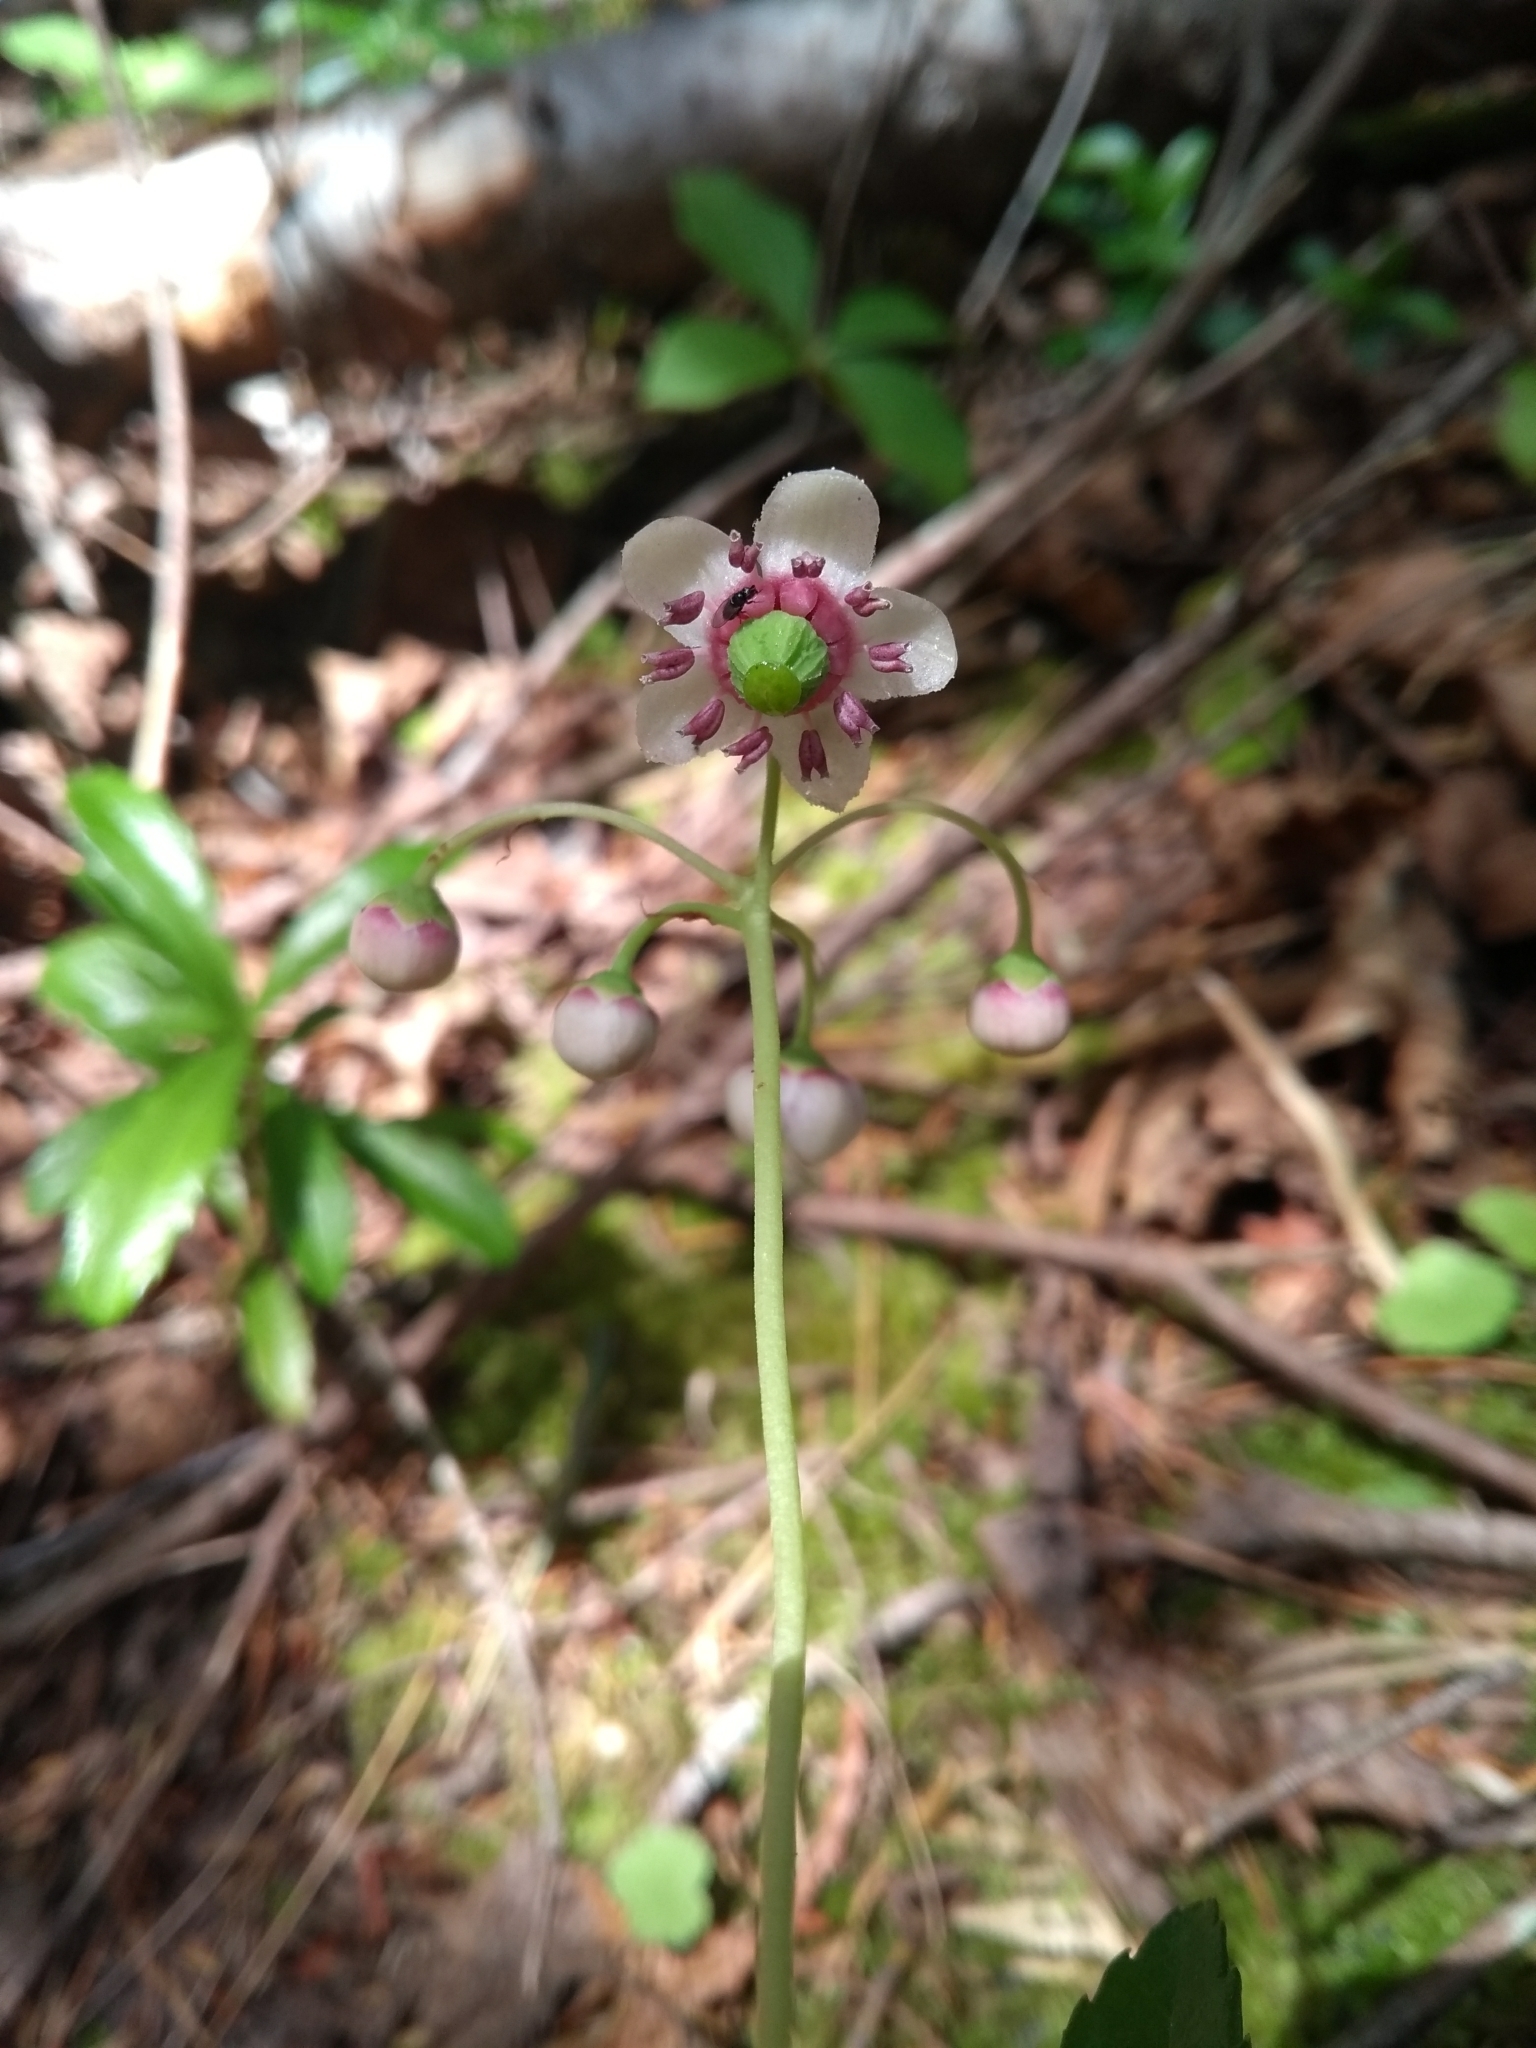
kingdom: Plantae
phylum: Tracheophyta
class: Magnoliopsida
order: Ericales
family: Ericaceae
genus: Chimaphila
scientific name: Chimaphila umbellata
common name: Pipsissewa
